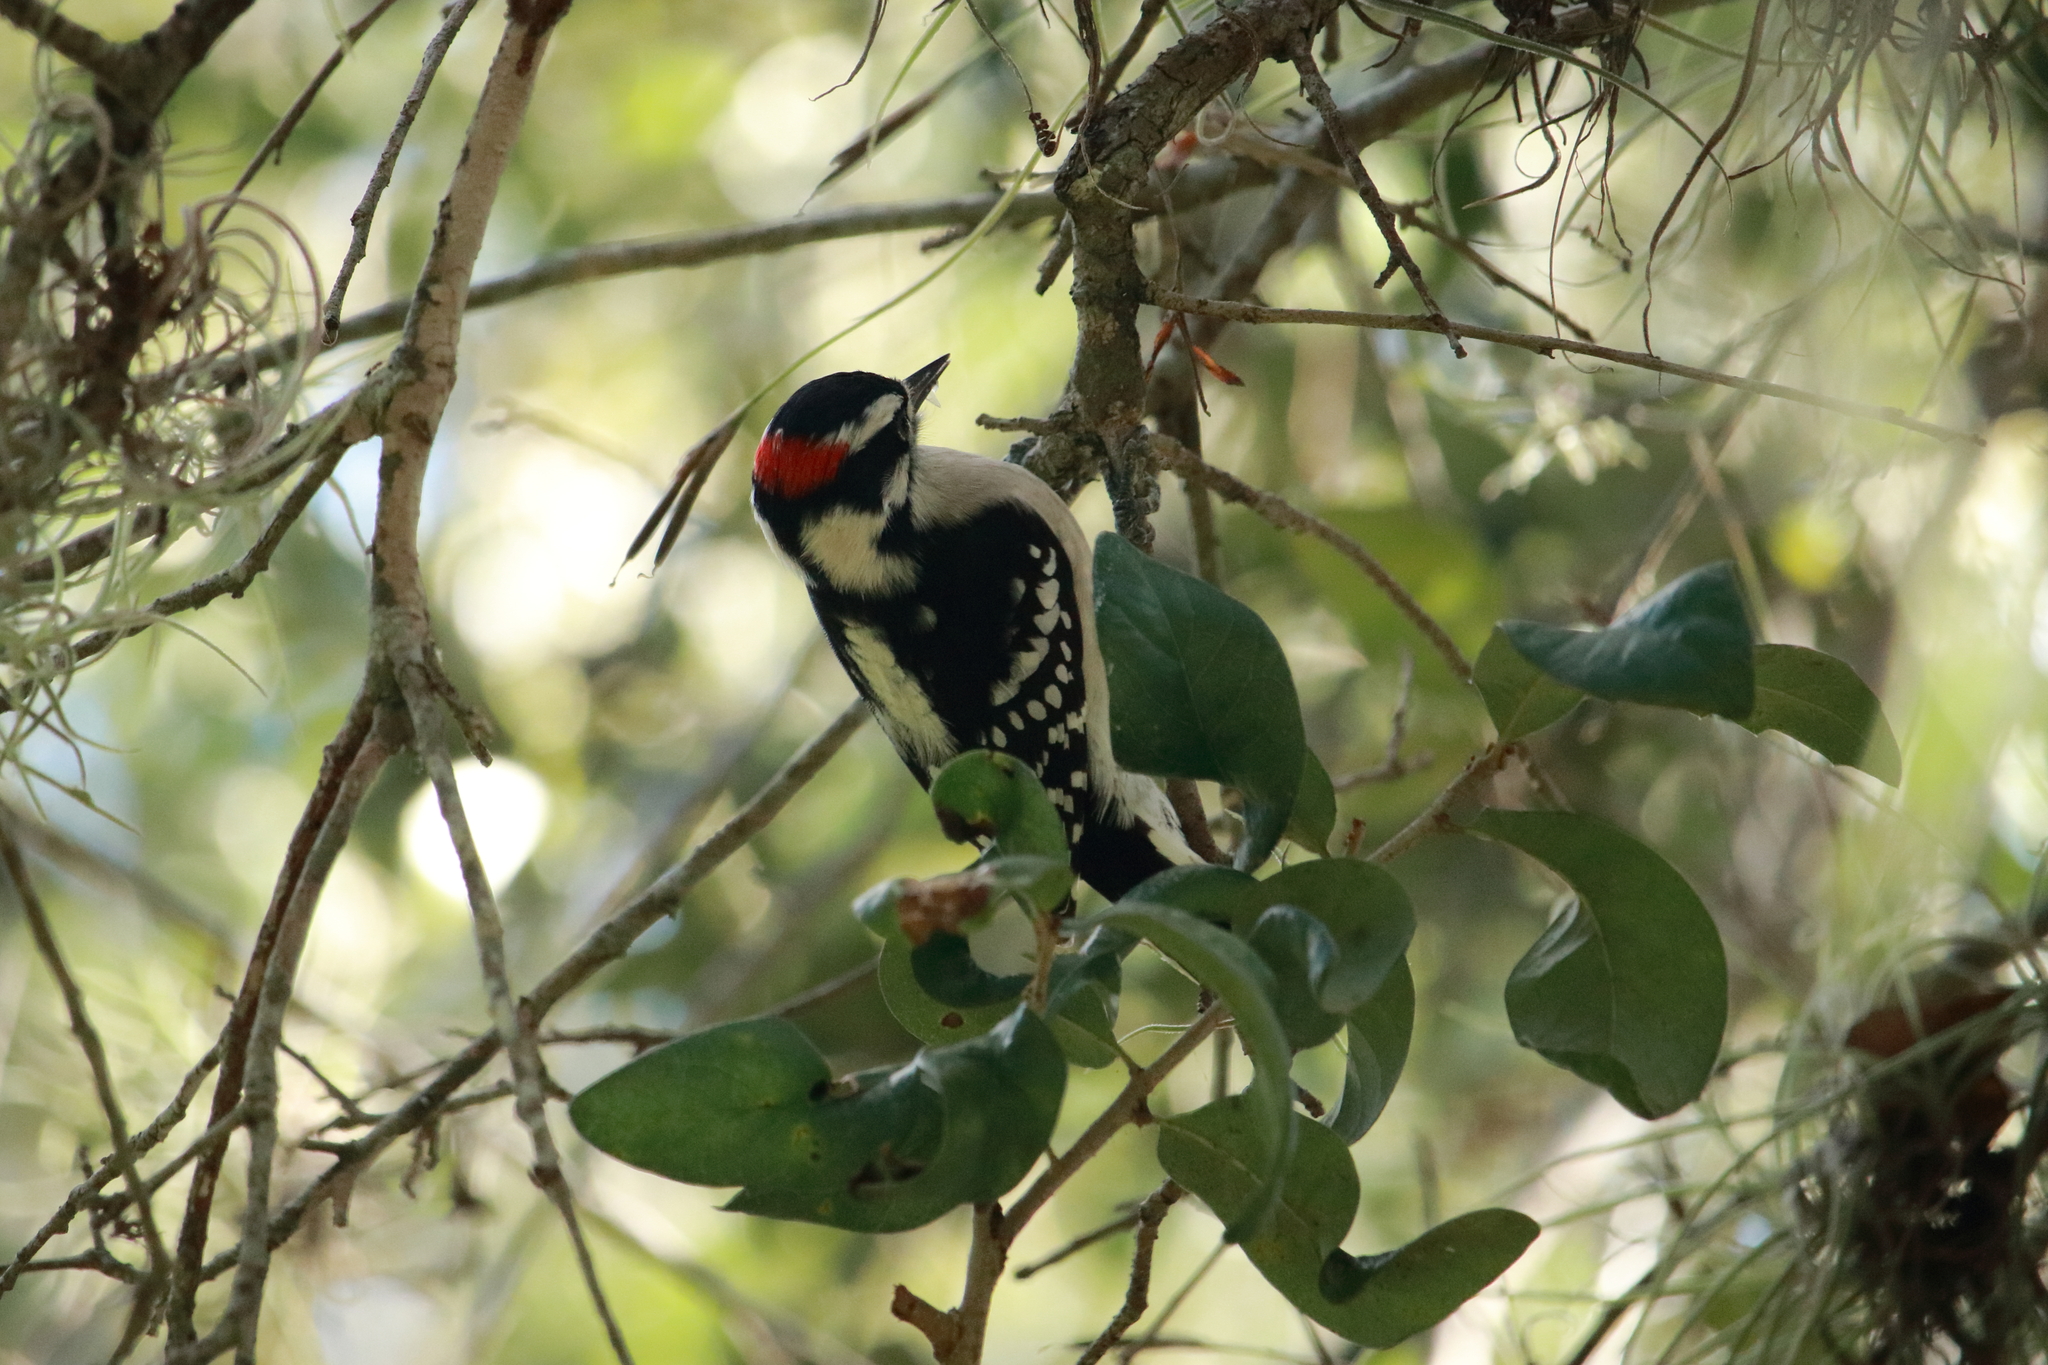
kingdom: Animalia
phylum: Chordata
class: Aves
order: Piciformes
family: Picidae
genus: Dryobates
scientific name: Dryobates pubescens
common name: Downy woodpecker
